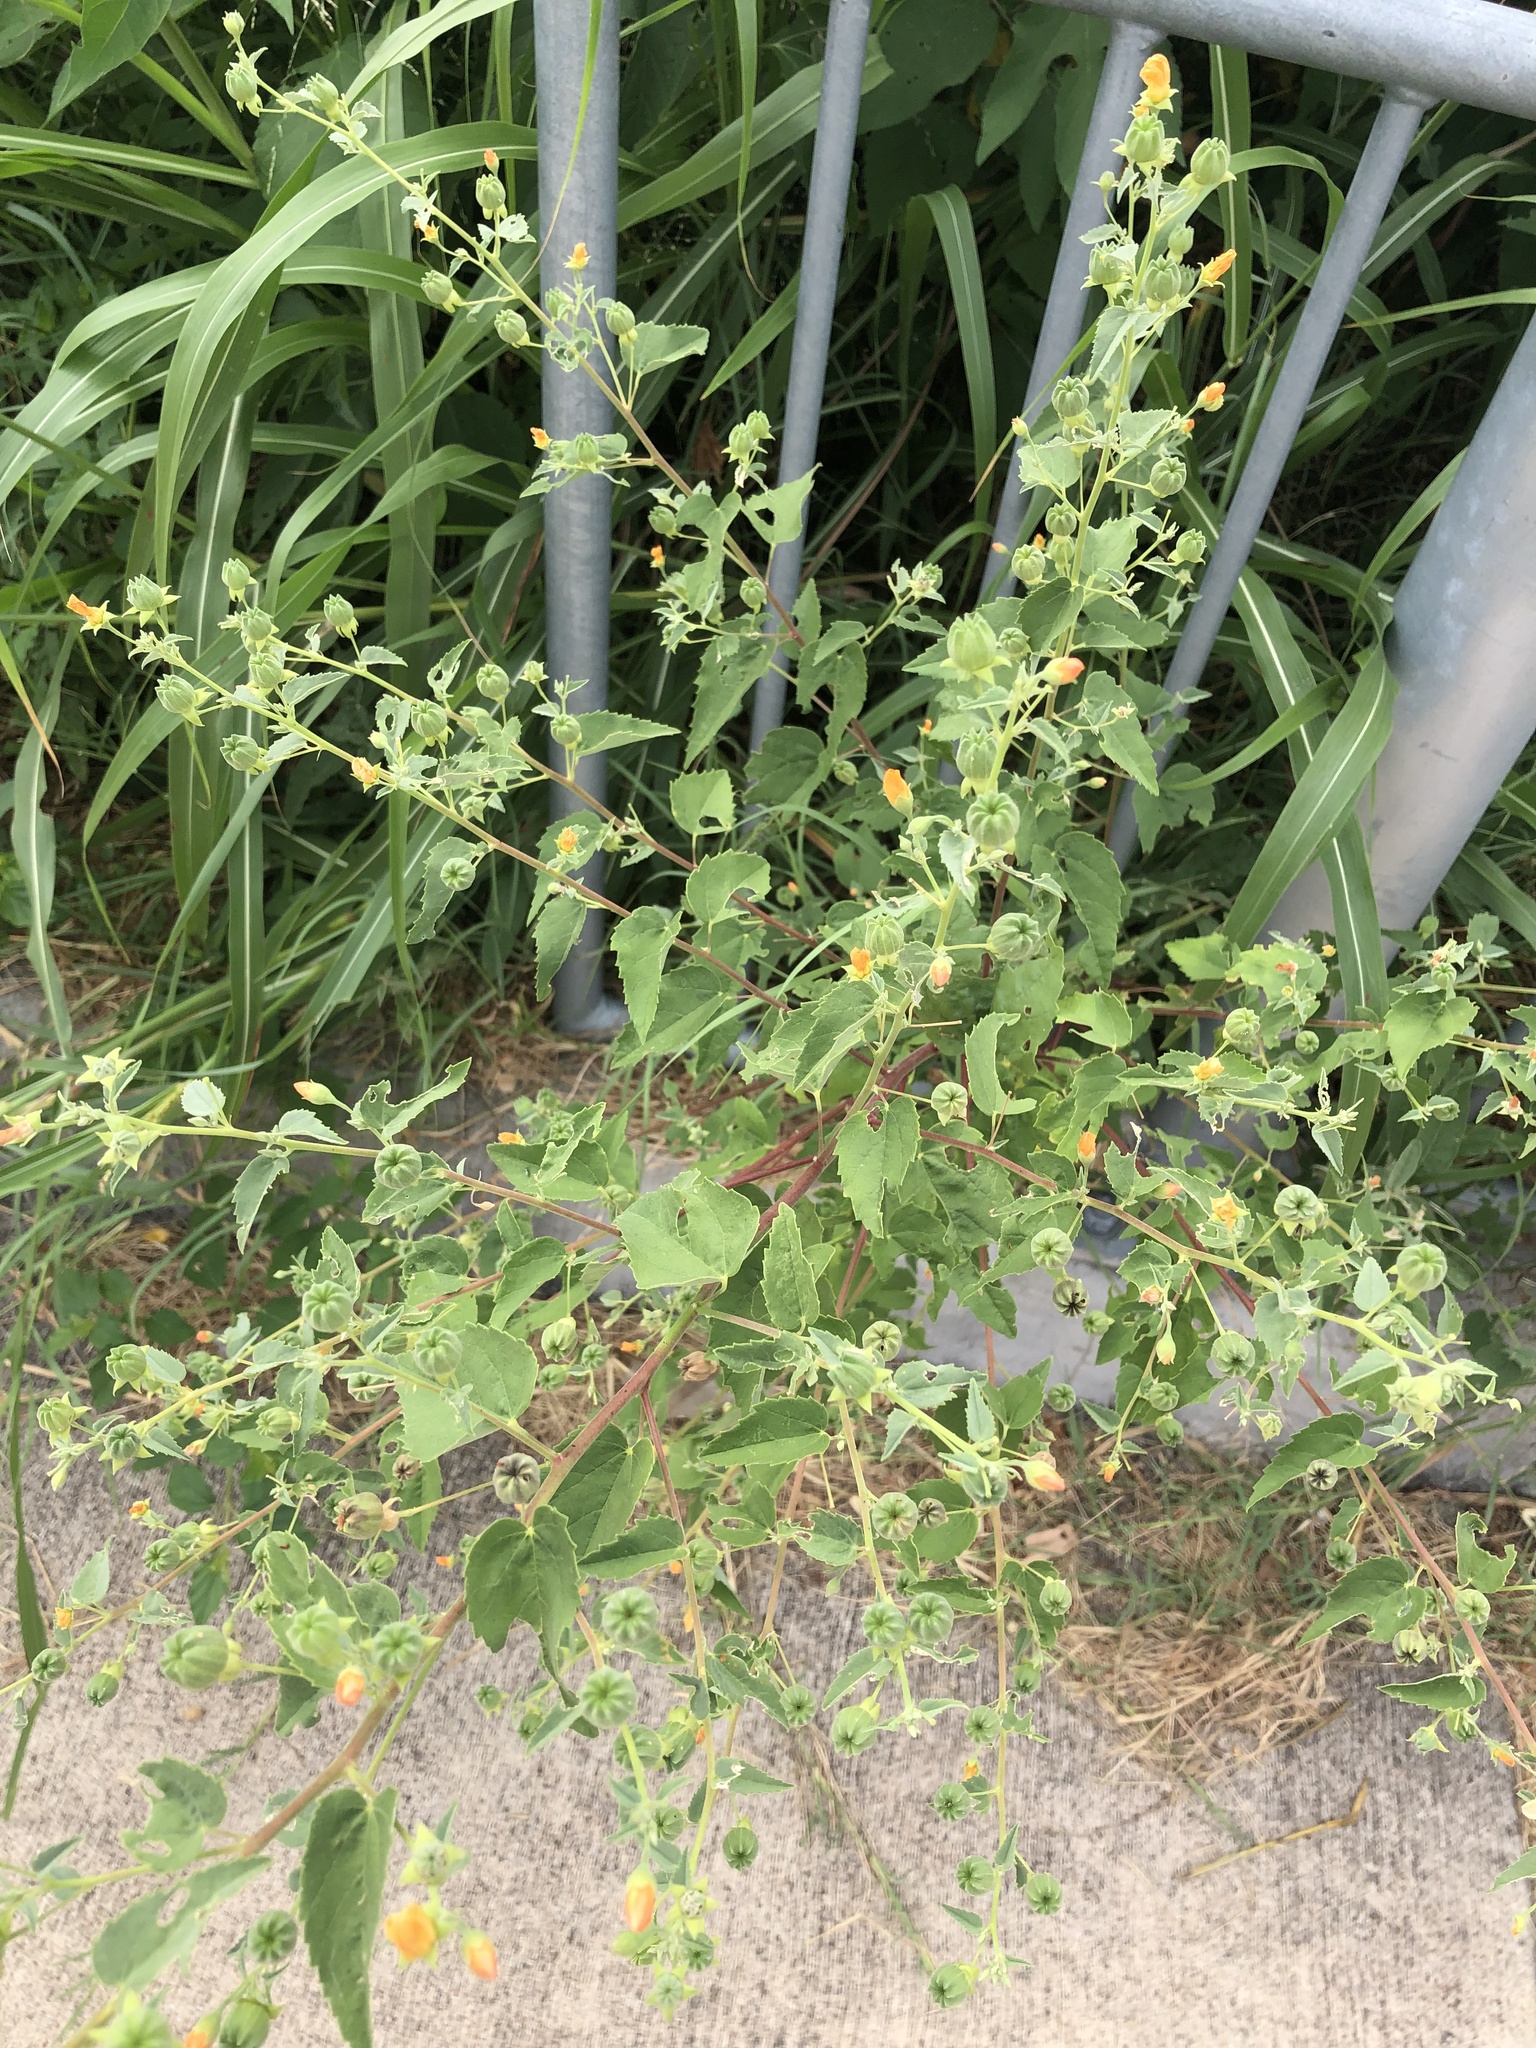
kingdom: Plantae
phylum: Tracheophyta
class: Magnoliopsida
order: Malvales
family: Malvaceae
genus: Abutilon
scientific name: Abutilon fruticosum
